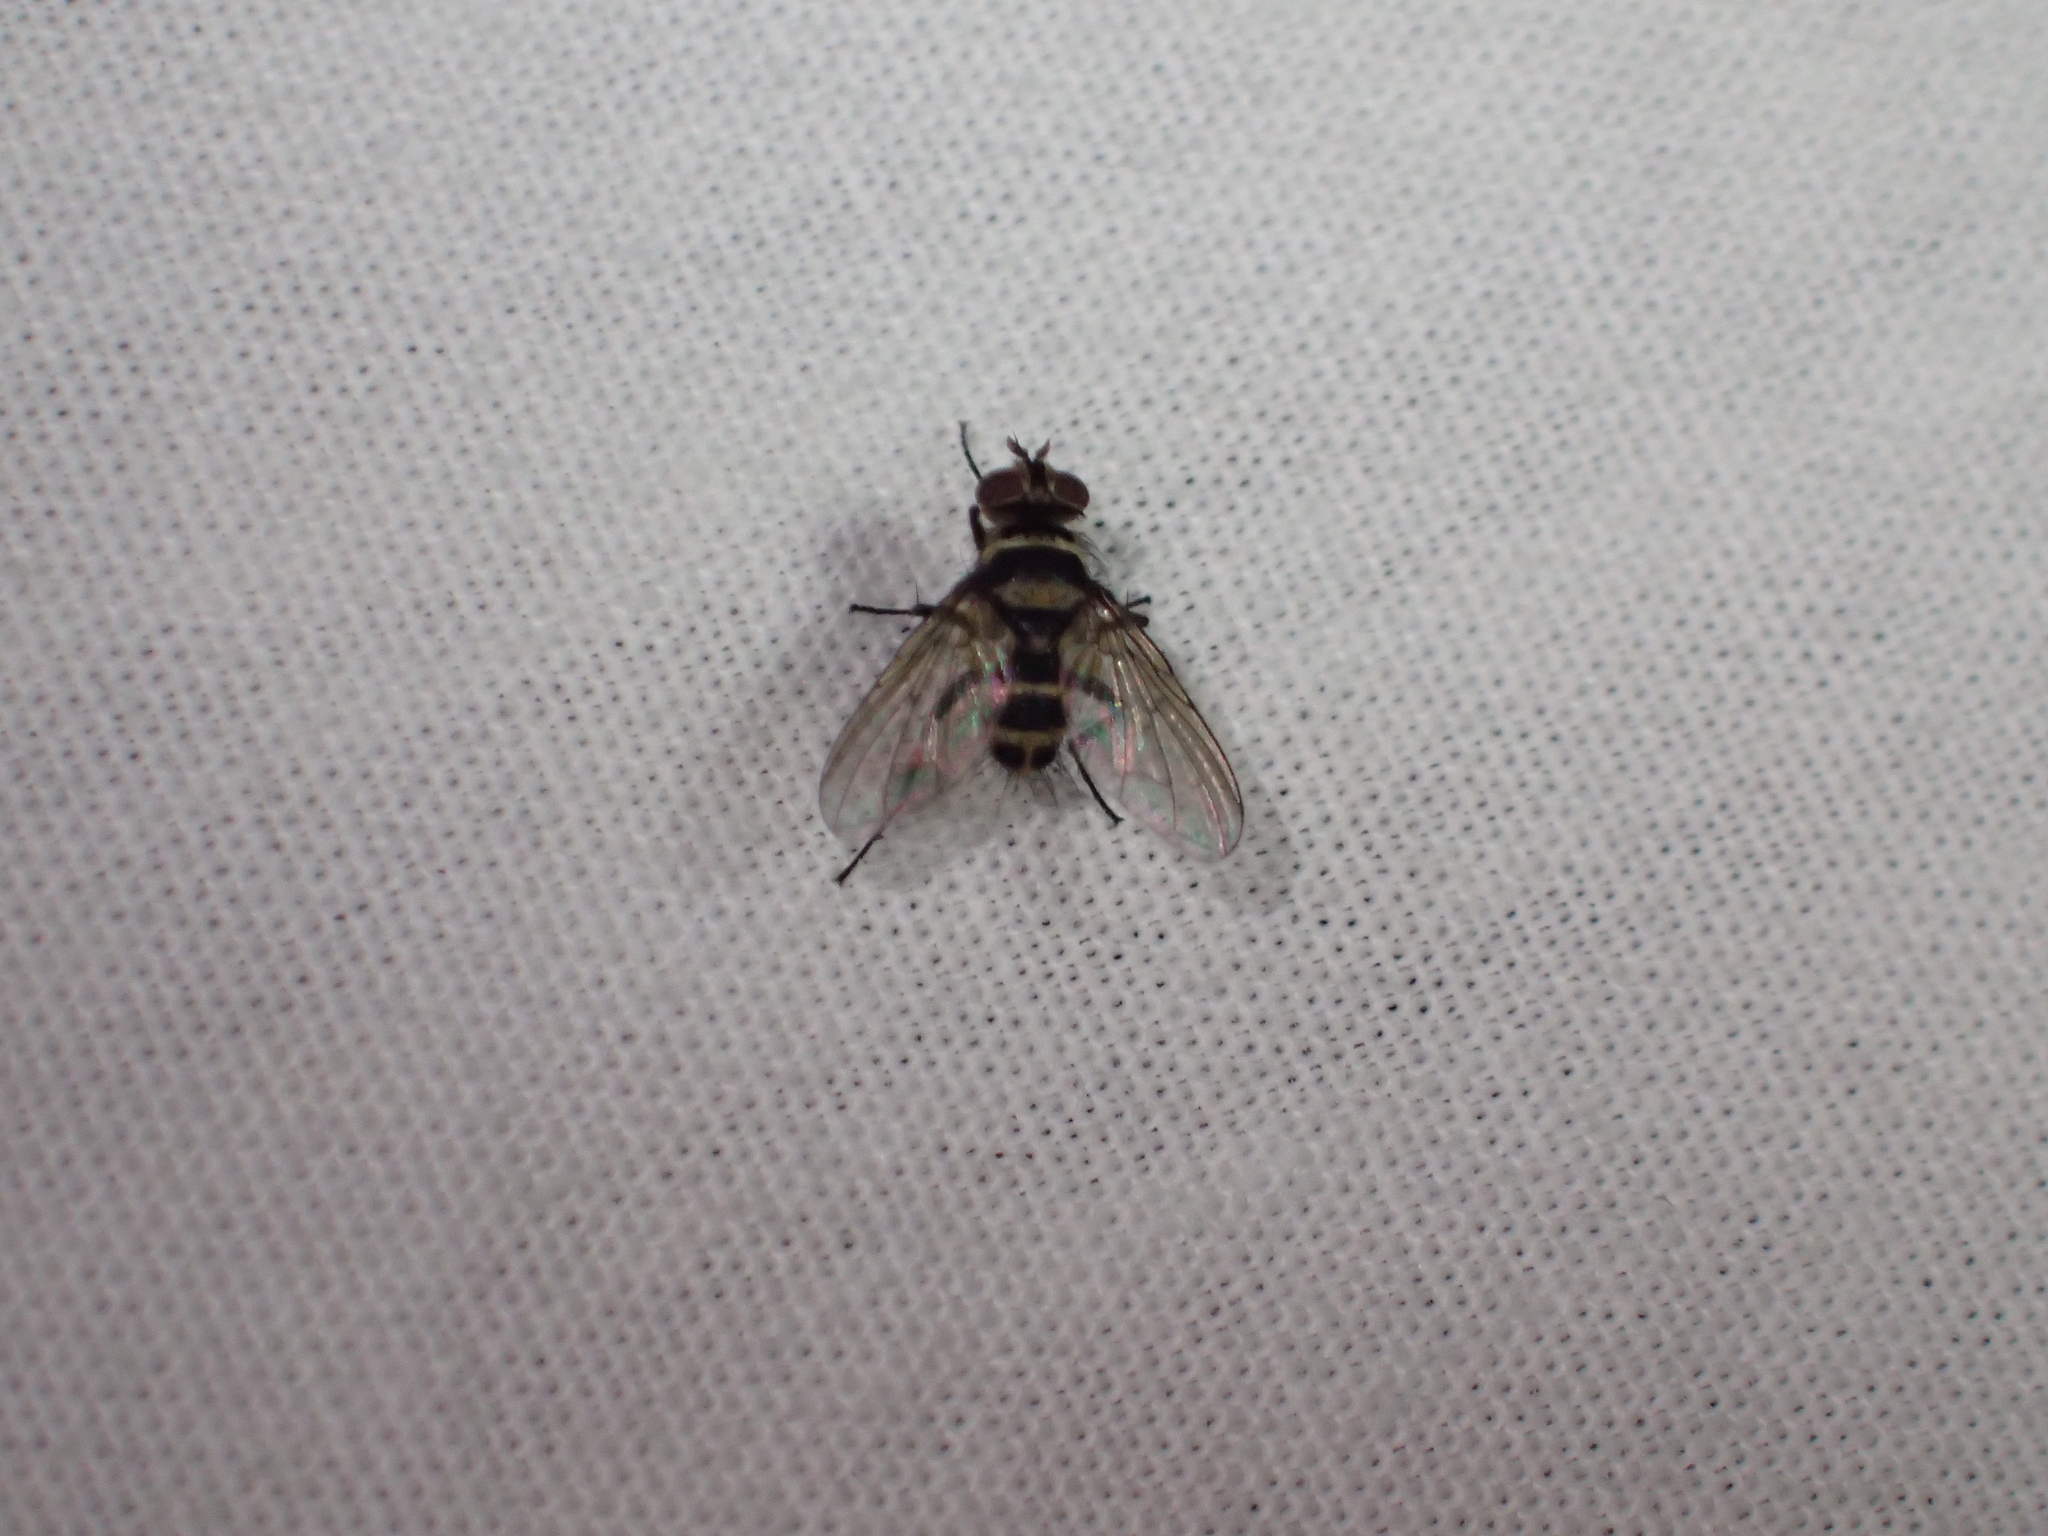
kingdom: Animalia
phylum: Arthropoda
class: Insecta
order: Diptera
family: Tachinidae
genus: Trigonospila
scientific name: Trigonospila brevifacies
